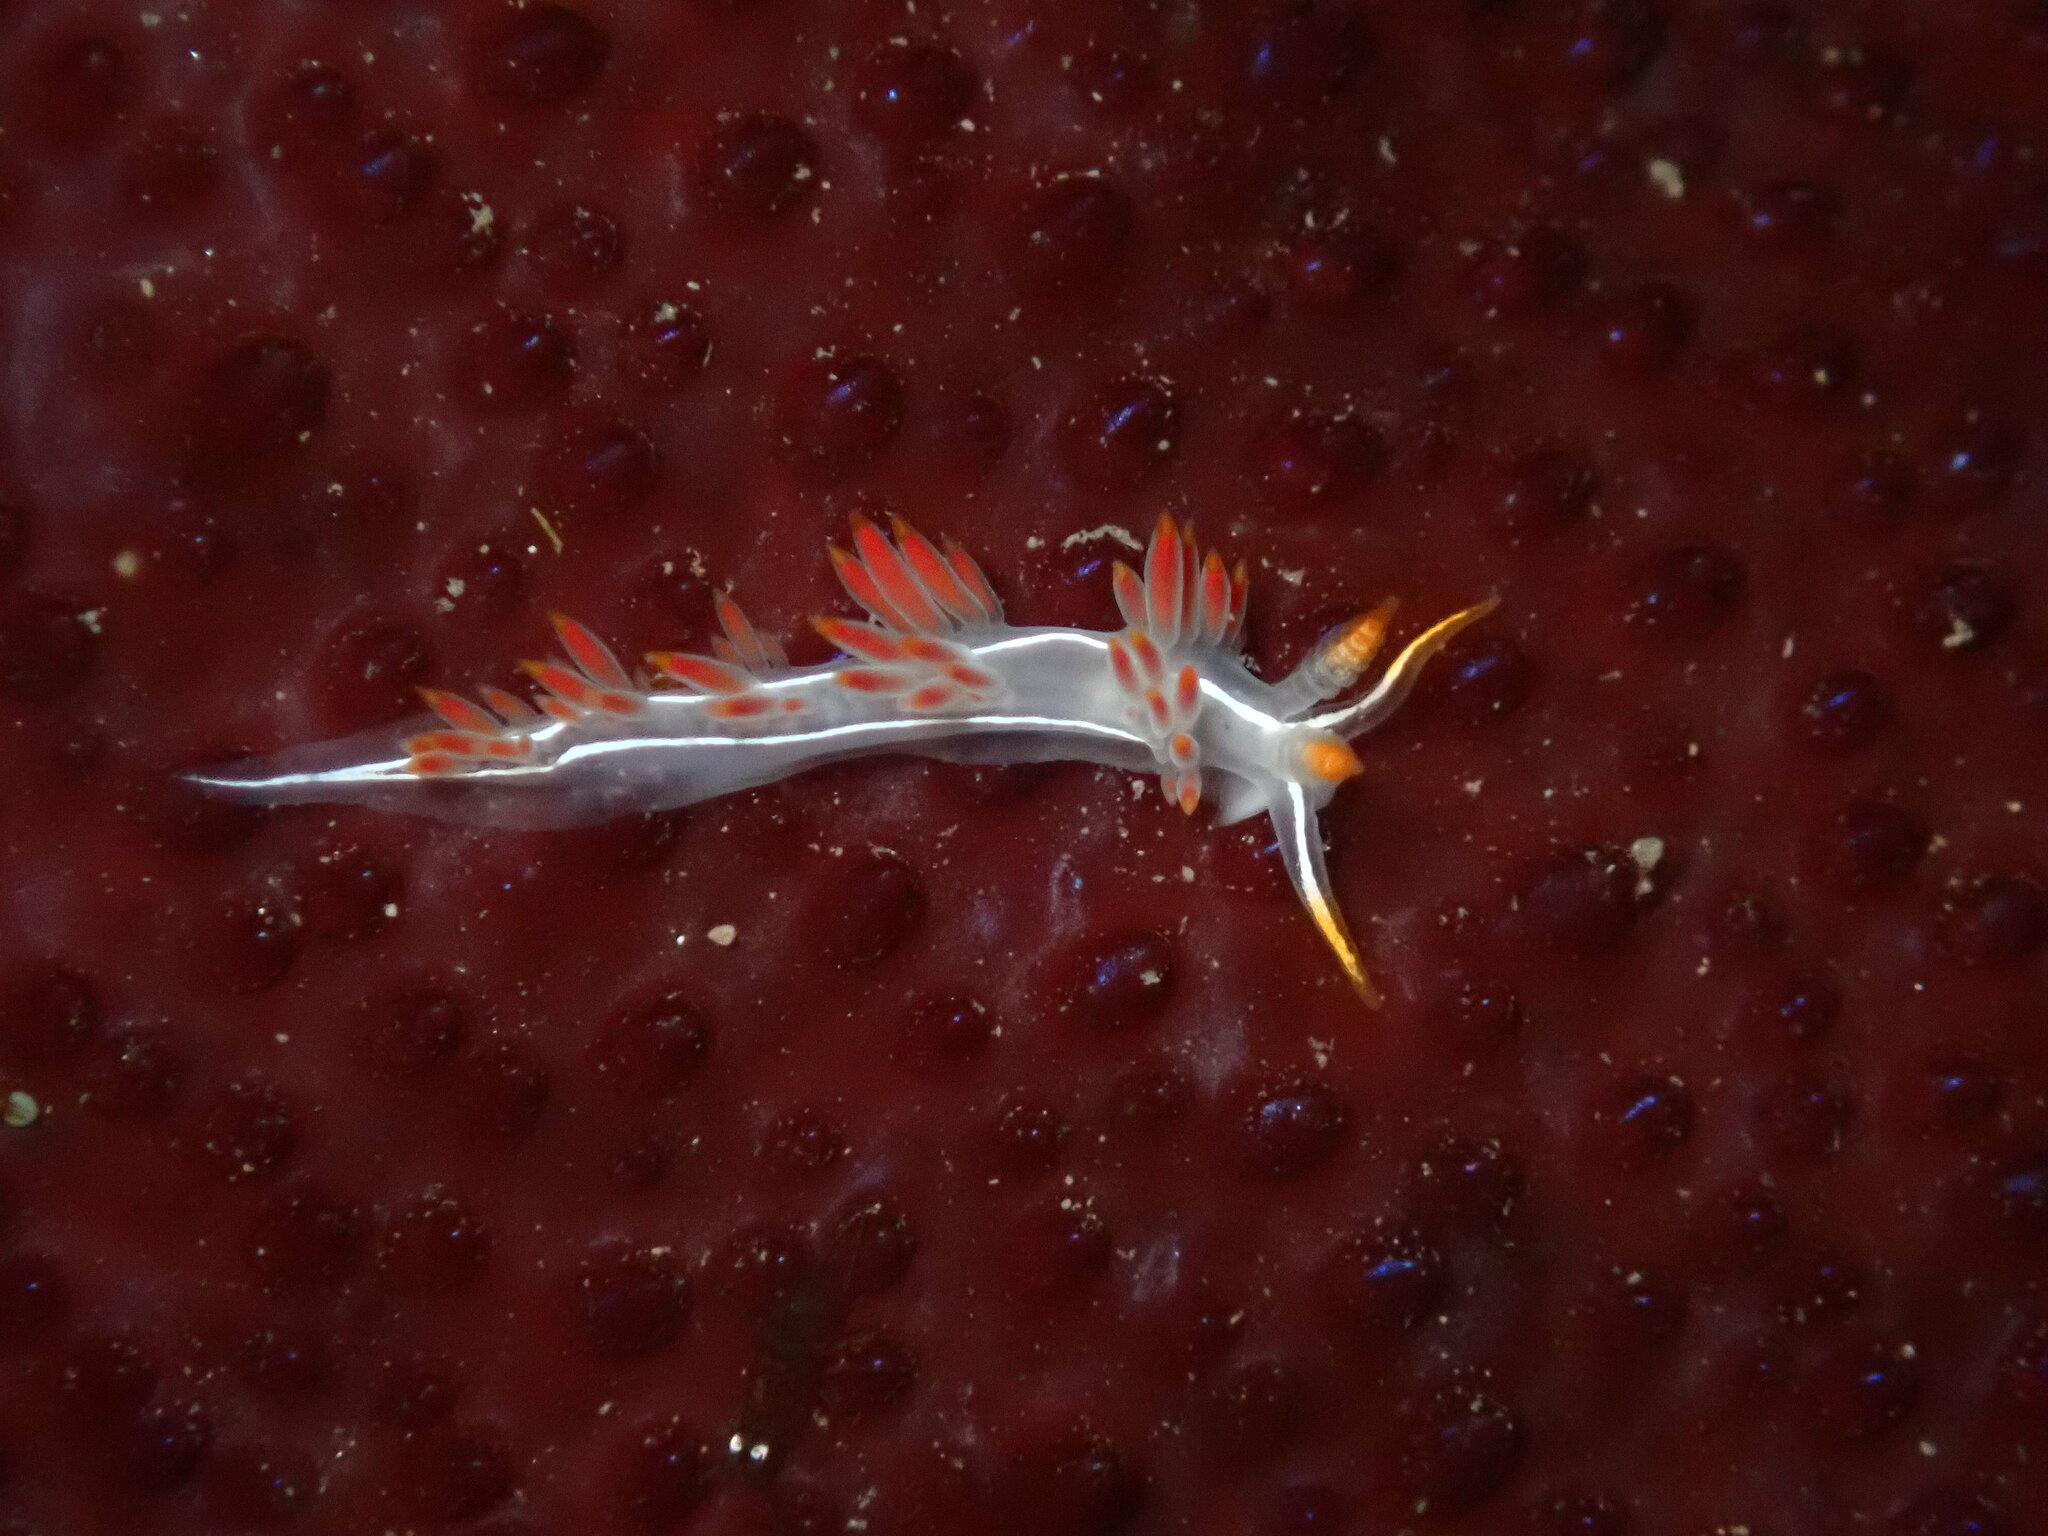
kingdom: Animalia
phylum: Mollusca
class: Gastropoda
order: Nudibranchia
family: Coryphellidae
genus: Coryphella
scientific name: Coryphella trilineata
